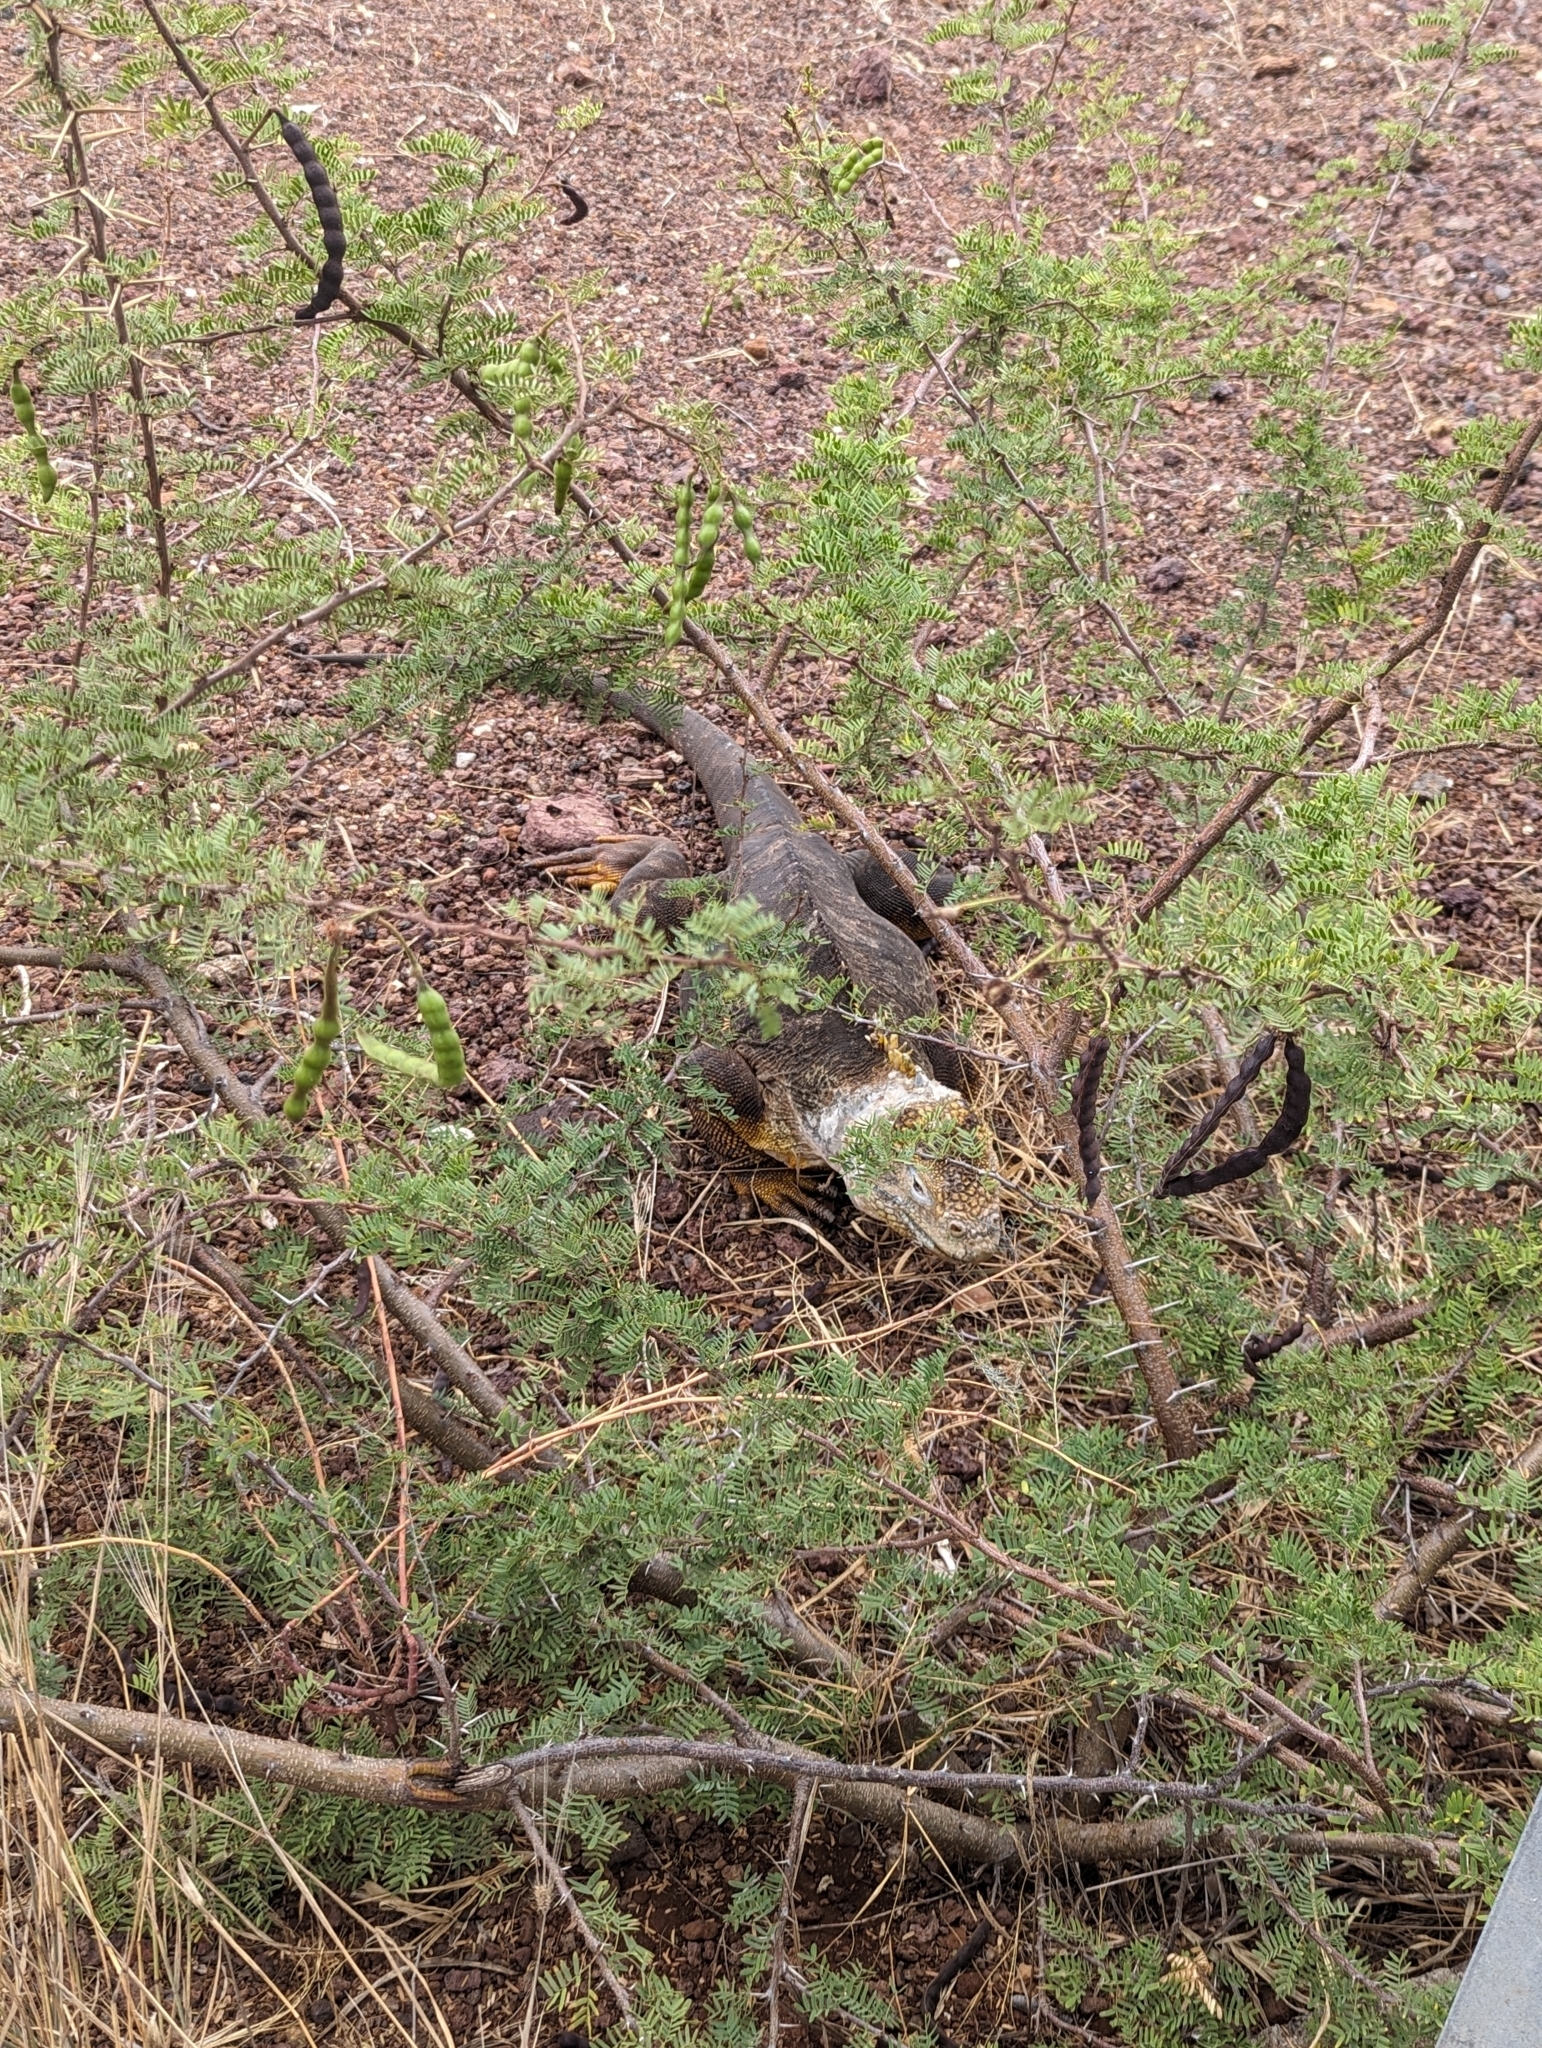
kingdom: Animalia
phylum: Chordata
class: Squamata
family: Iguanidae
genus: Conolophus
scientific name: Conolophus subcristatus
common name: Galapagos land iguana
